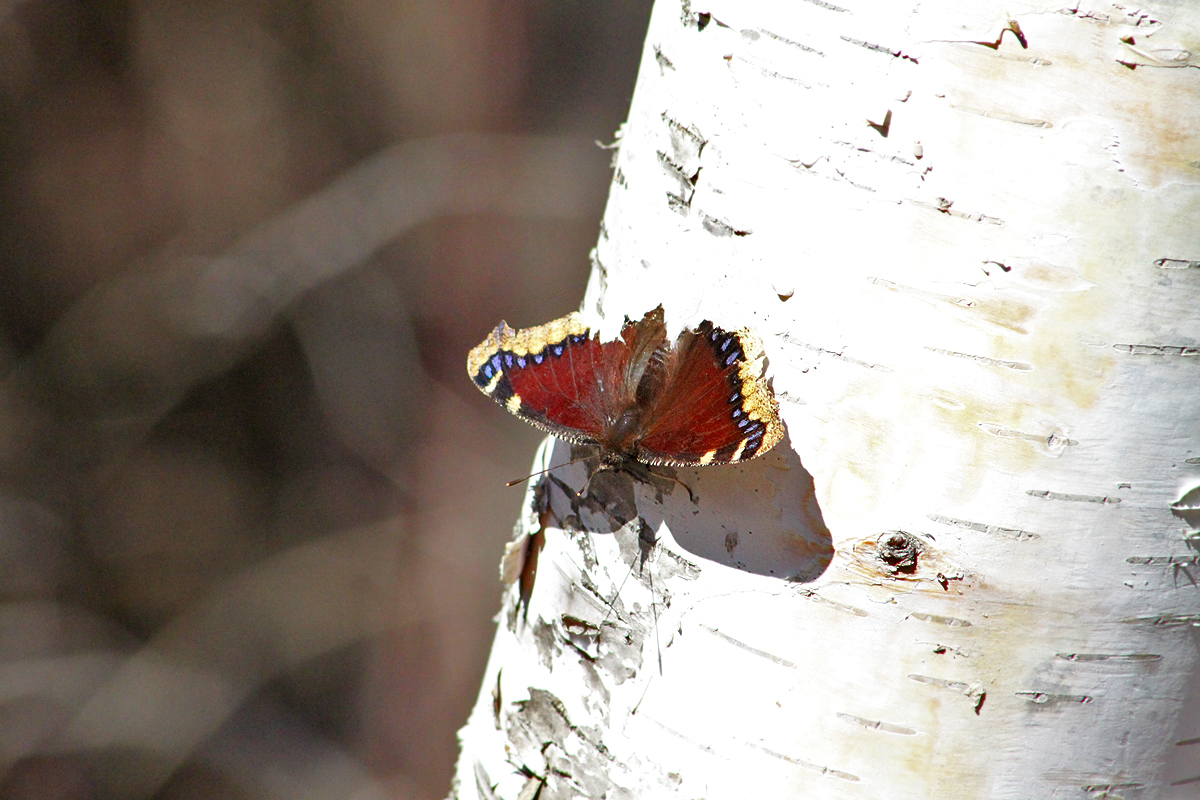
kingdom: Animalia
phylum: Arthropoda
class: Insecta
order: Lepidoptera
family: Nymphalidae
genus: Nymphalis
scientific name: Nymphalis antiopa
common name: Camberwell beauty
